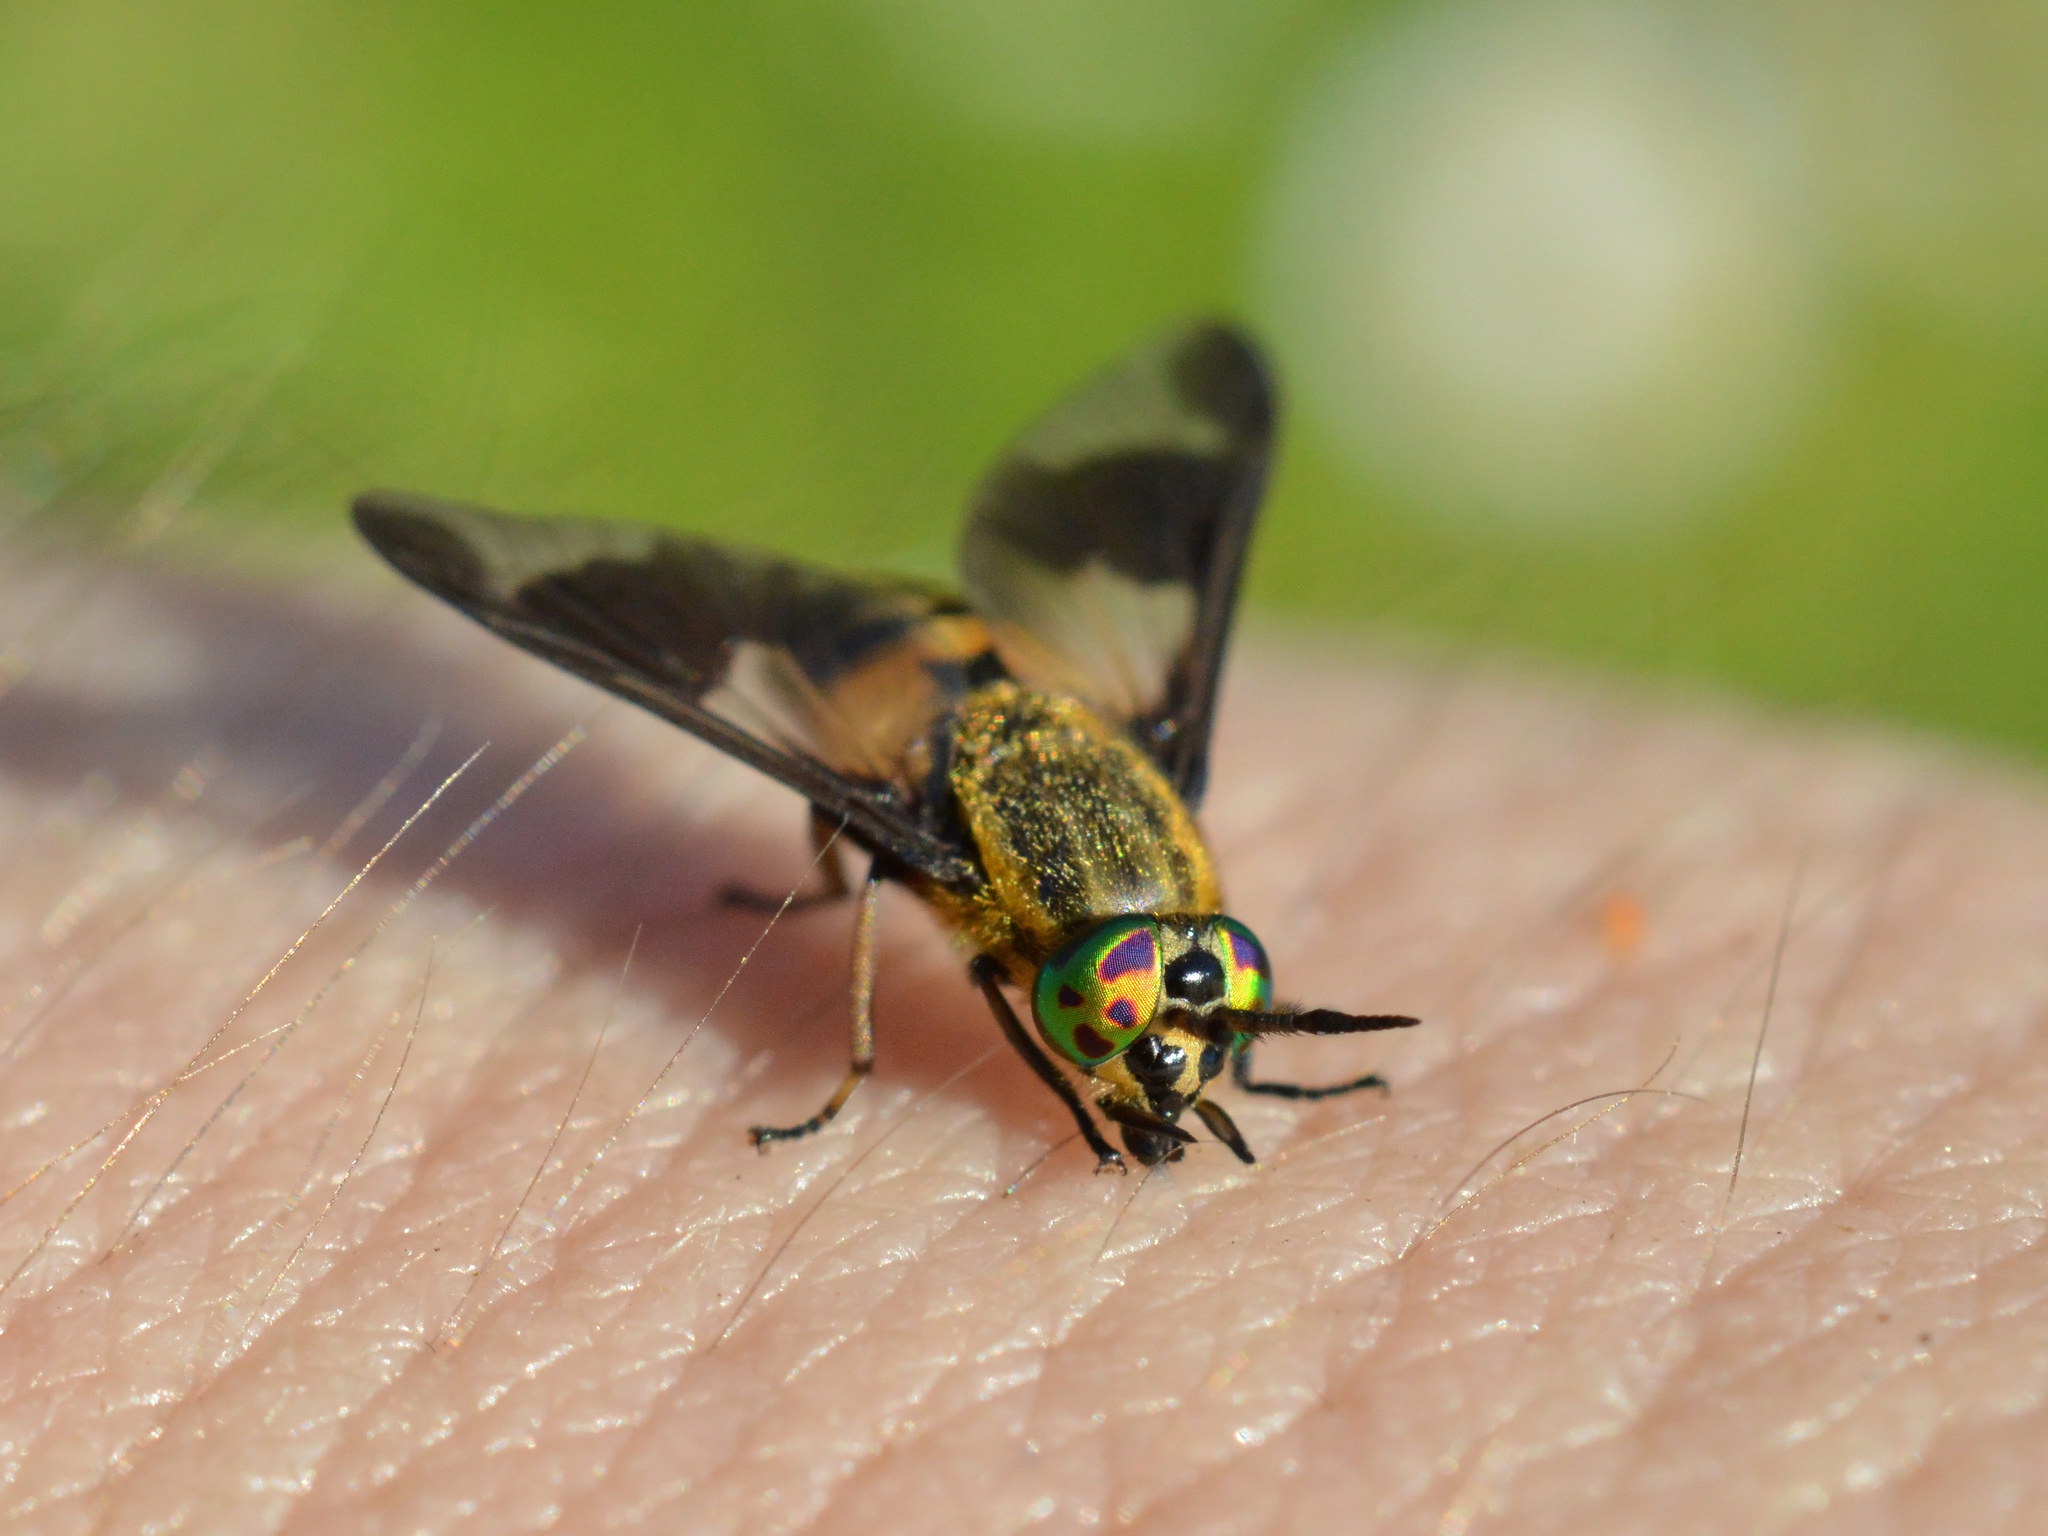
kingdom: Animalia
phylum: Arthropoda
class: Insecta
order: Diptera
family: Tabanidae
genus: Chrysops
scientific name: Chrysops viduatus
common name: Square-spot deerfly
